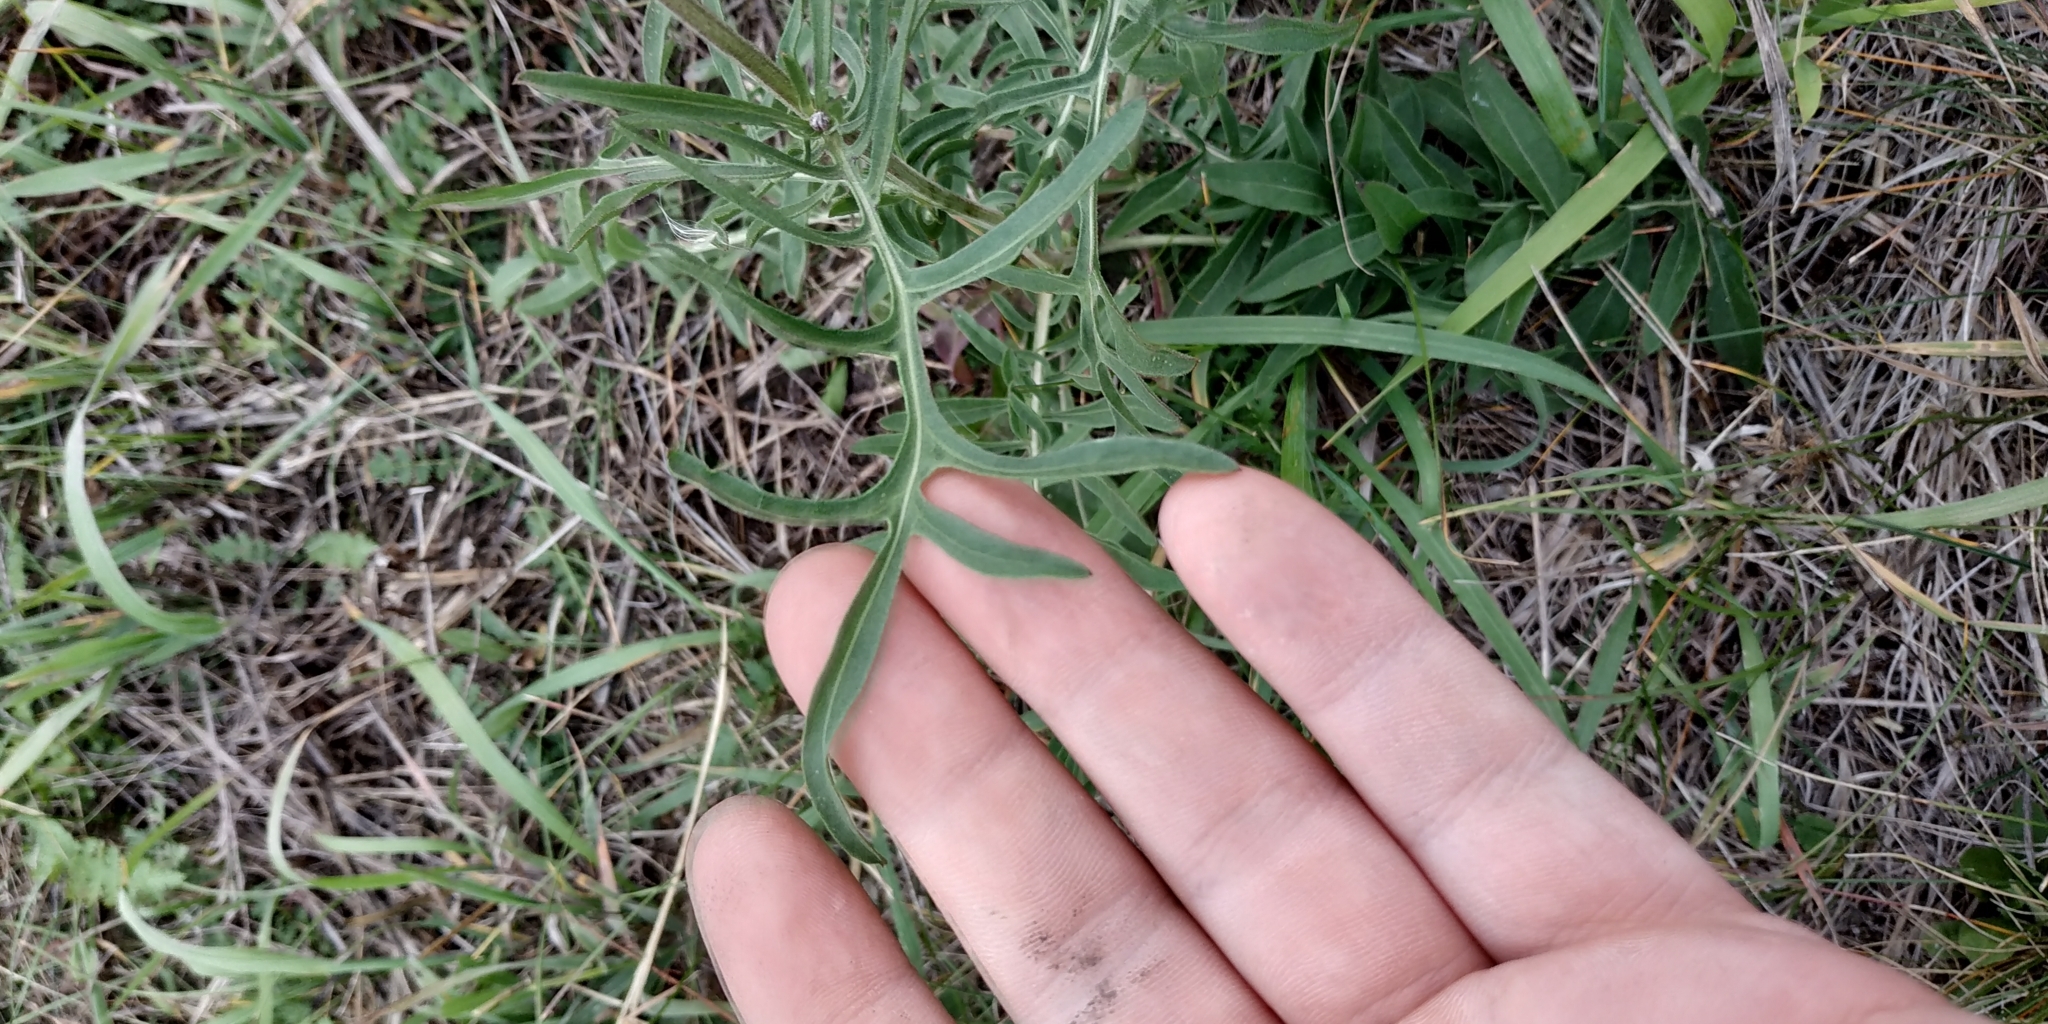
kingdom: Plantae
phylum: Tracheophyta
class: Magnoliopsida
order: Asterales
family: Asteraceae
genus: Centaurea
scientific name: Centaurea scabiosa
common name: Greater knapweed
